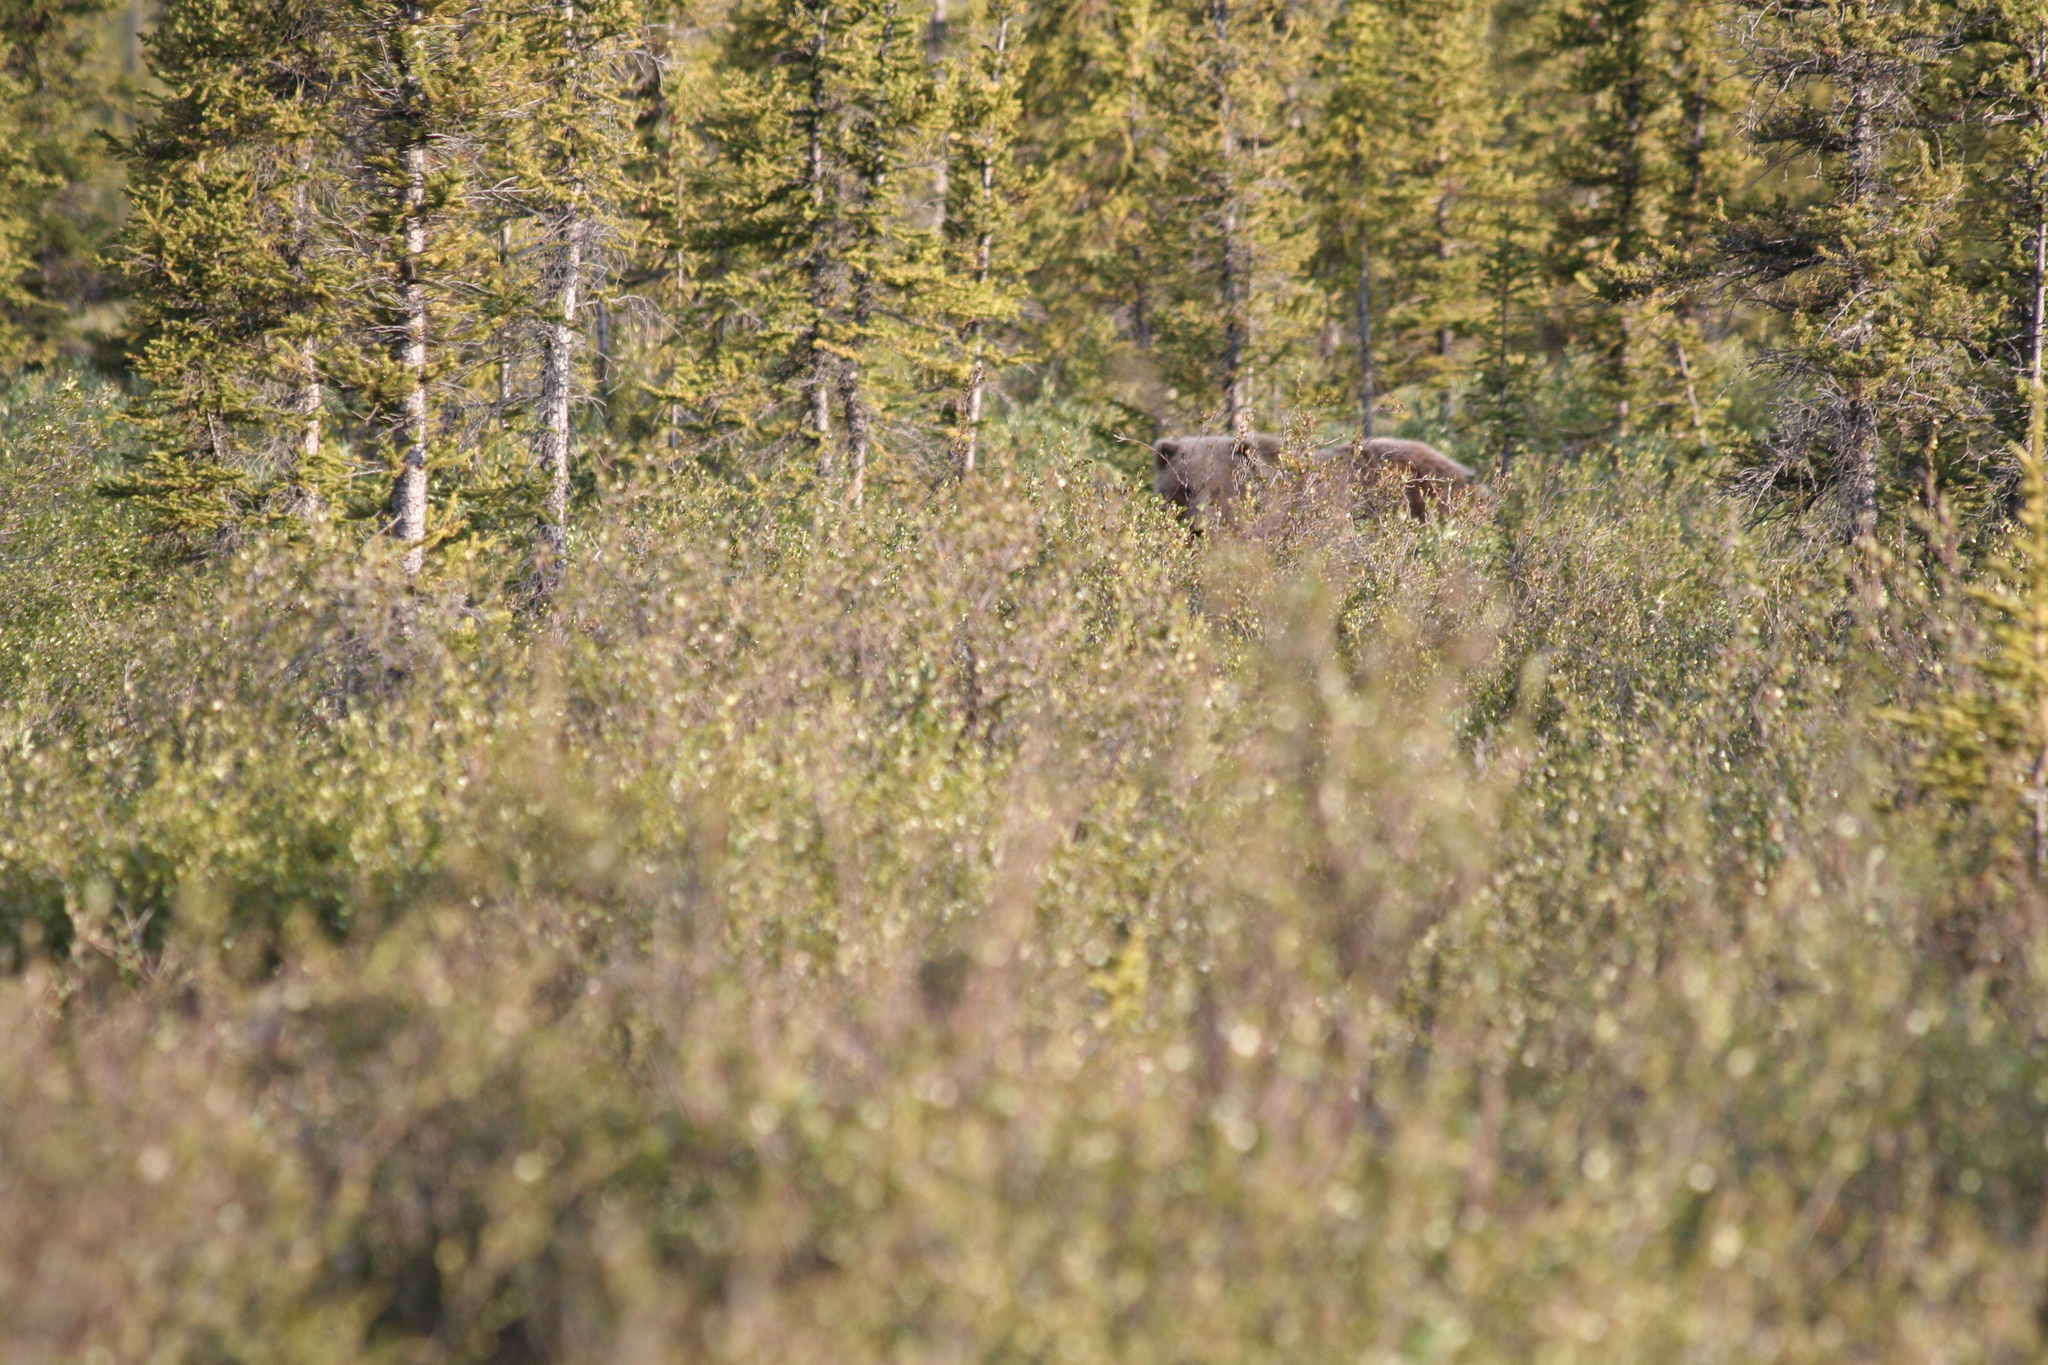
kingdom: Animalia
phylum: Chordata
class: Mammalia
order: Carnivora
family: Ursidae
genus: Ursus
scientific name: Ursus arctos
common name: Brown bear
